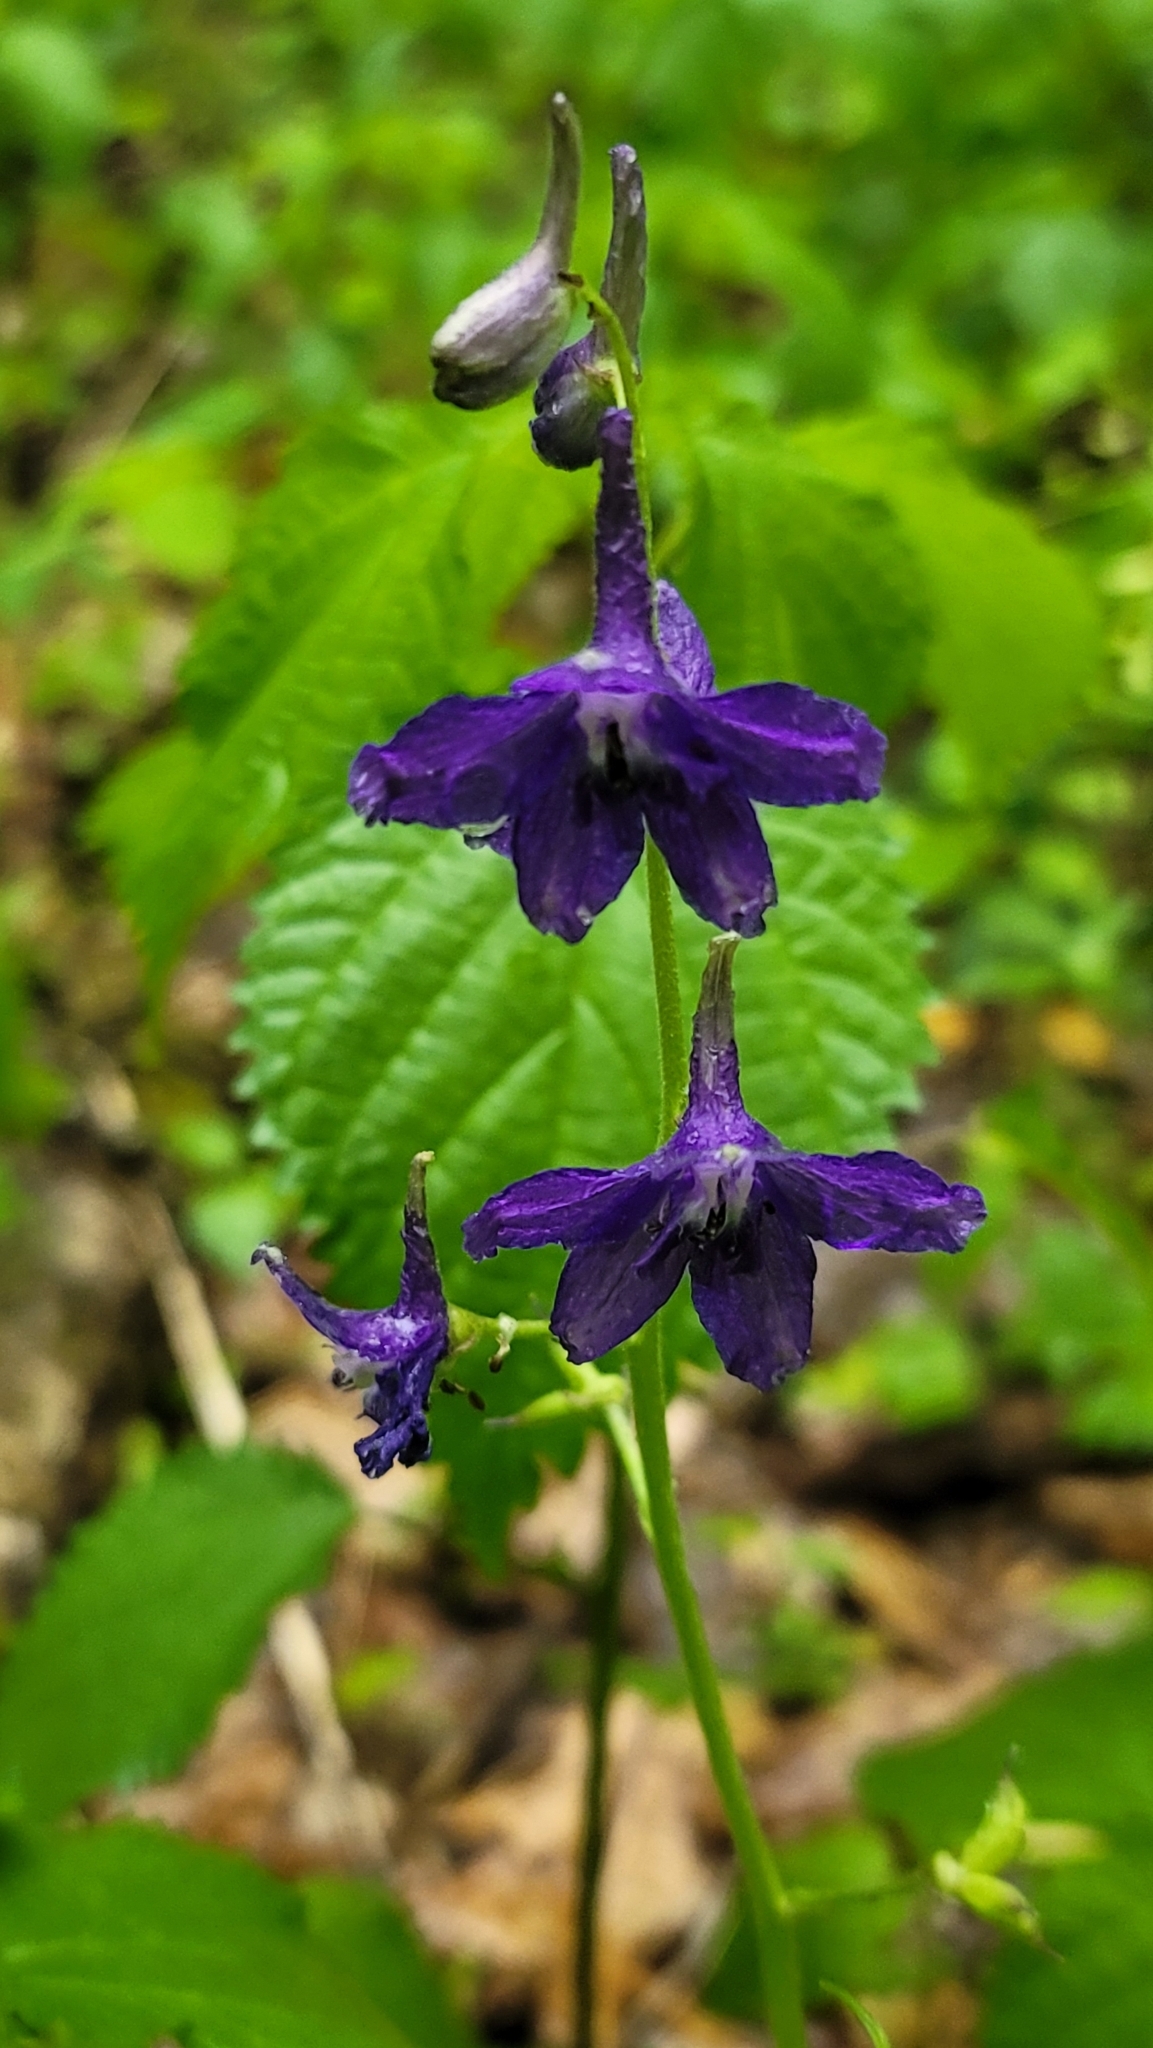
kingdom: Plantae
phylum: Tracheophyta
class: Magnoliopsida
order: Ranunculales
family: Ranunculaceae
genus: Delphinium
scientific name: Delphinium tricorne
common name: Dwarf larkspur
